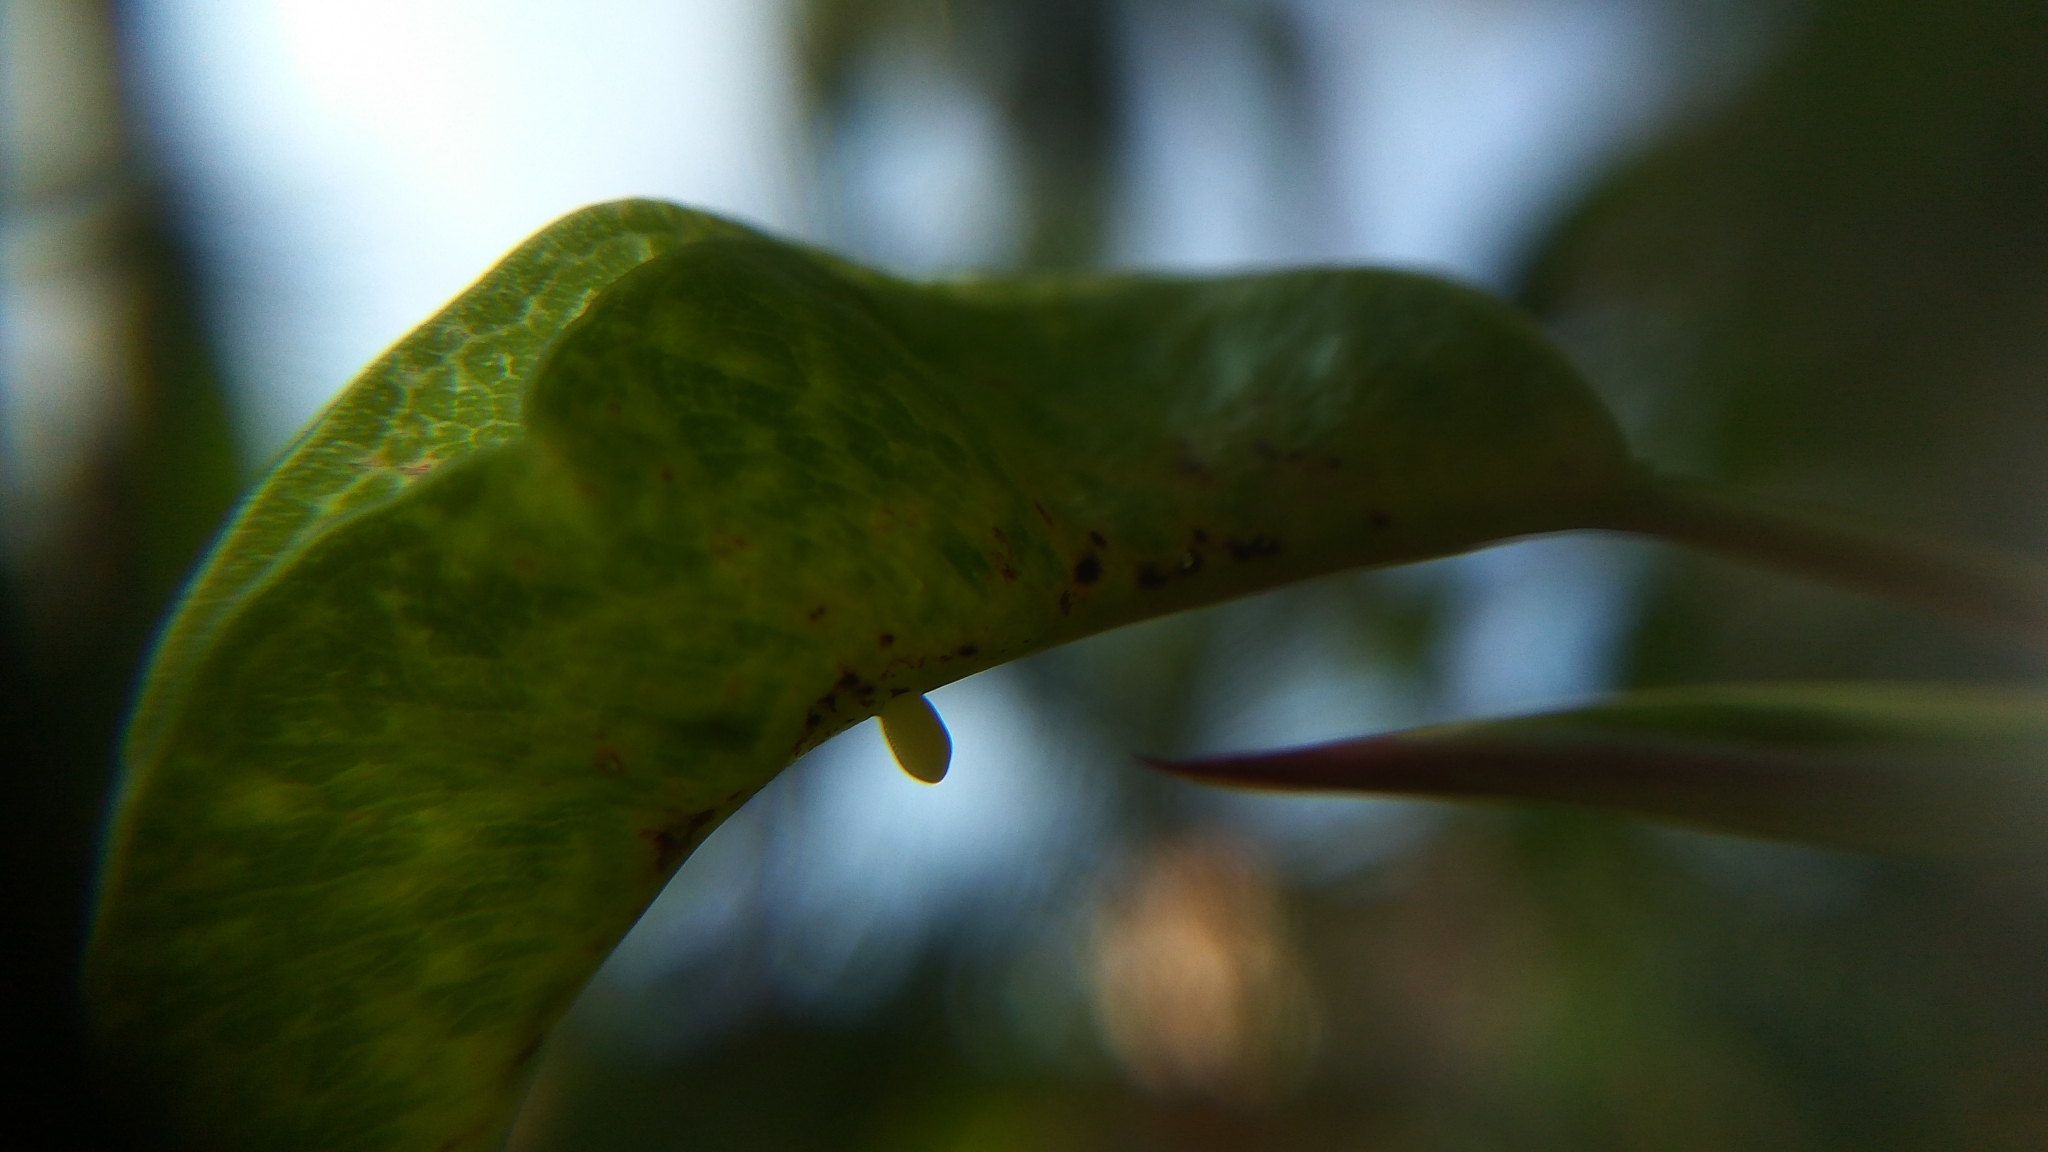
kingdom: Animalia
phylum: Arthropoda
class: Insecta
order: Lepidoptera
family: Nymphalidae
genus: Euploea
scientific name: Euploea core
